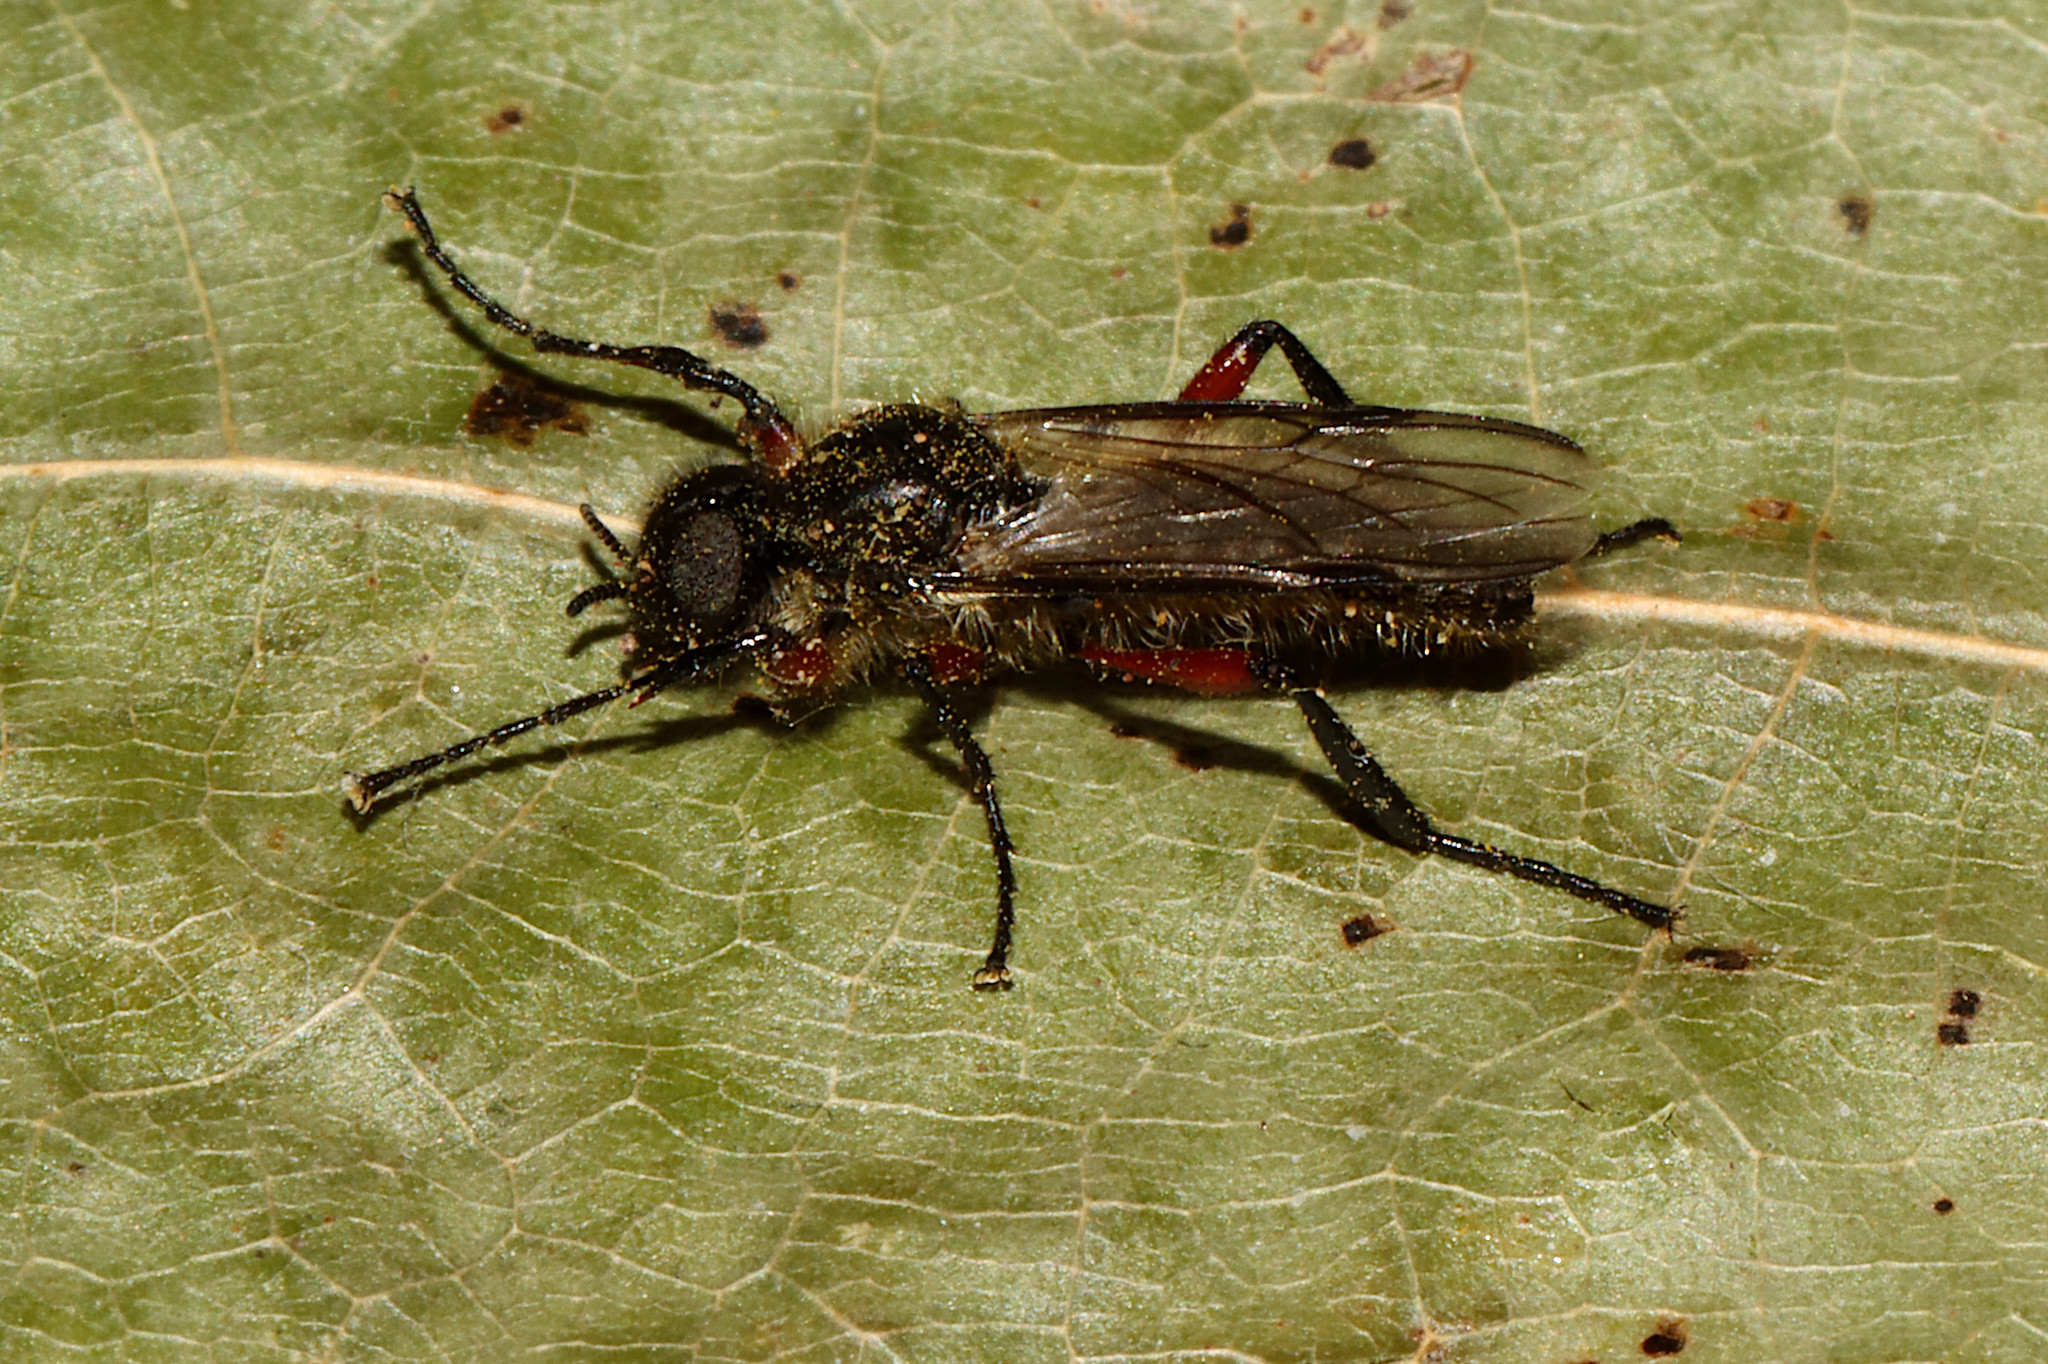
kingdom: Animalia
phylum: Arthropoda
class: Insecta
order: Diptera
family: Bibionidae
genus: Bibio
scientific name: Bibio femoratus
